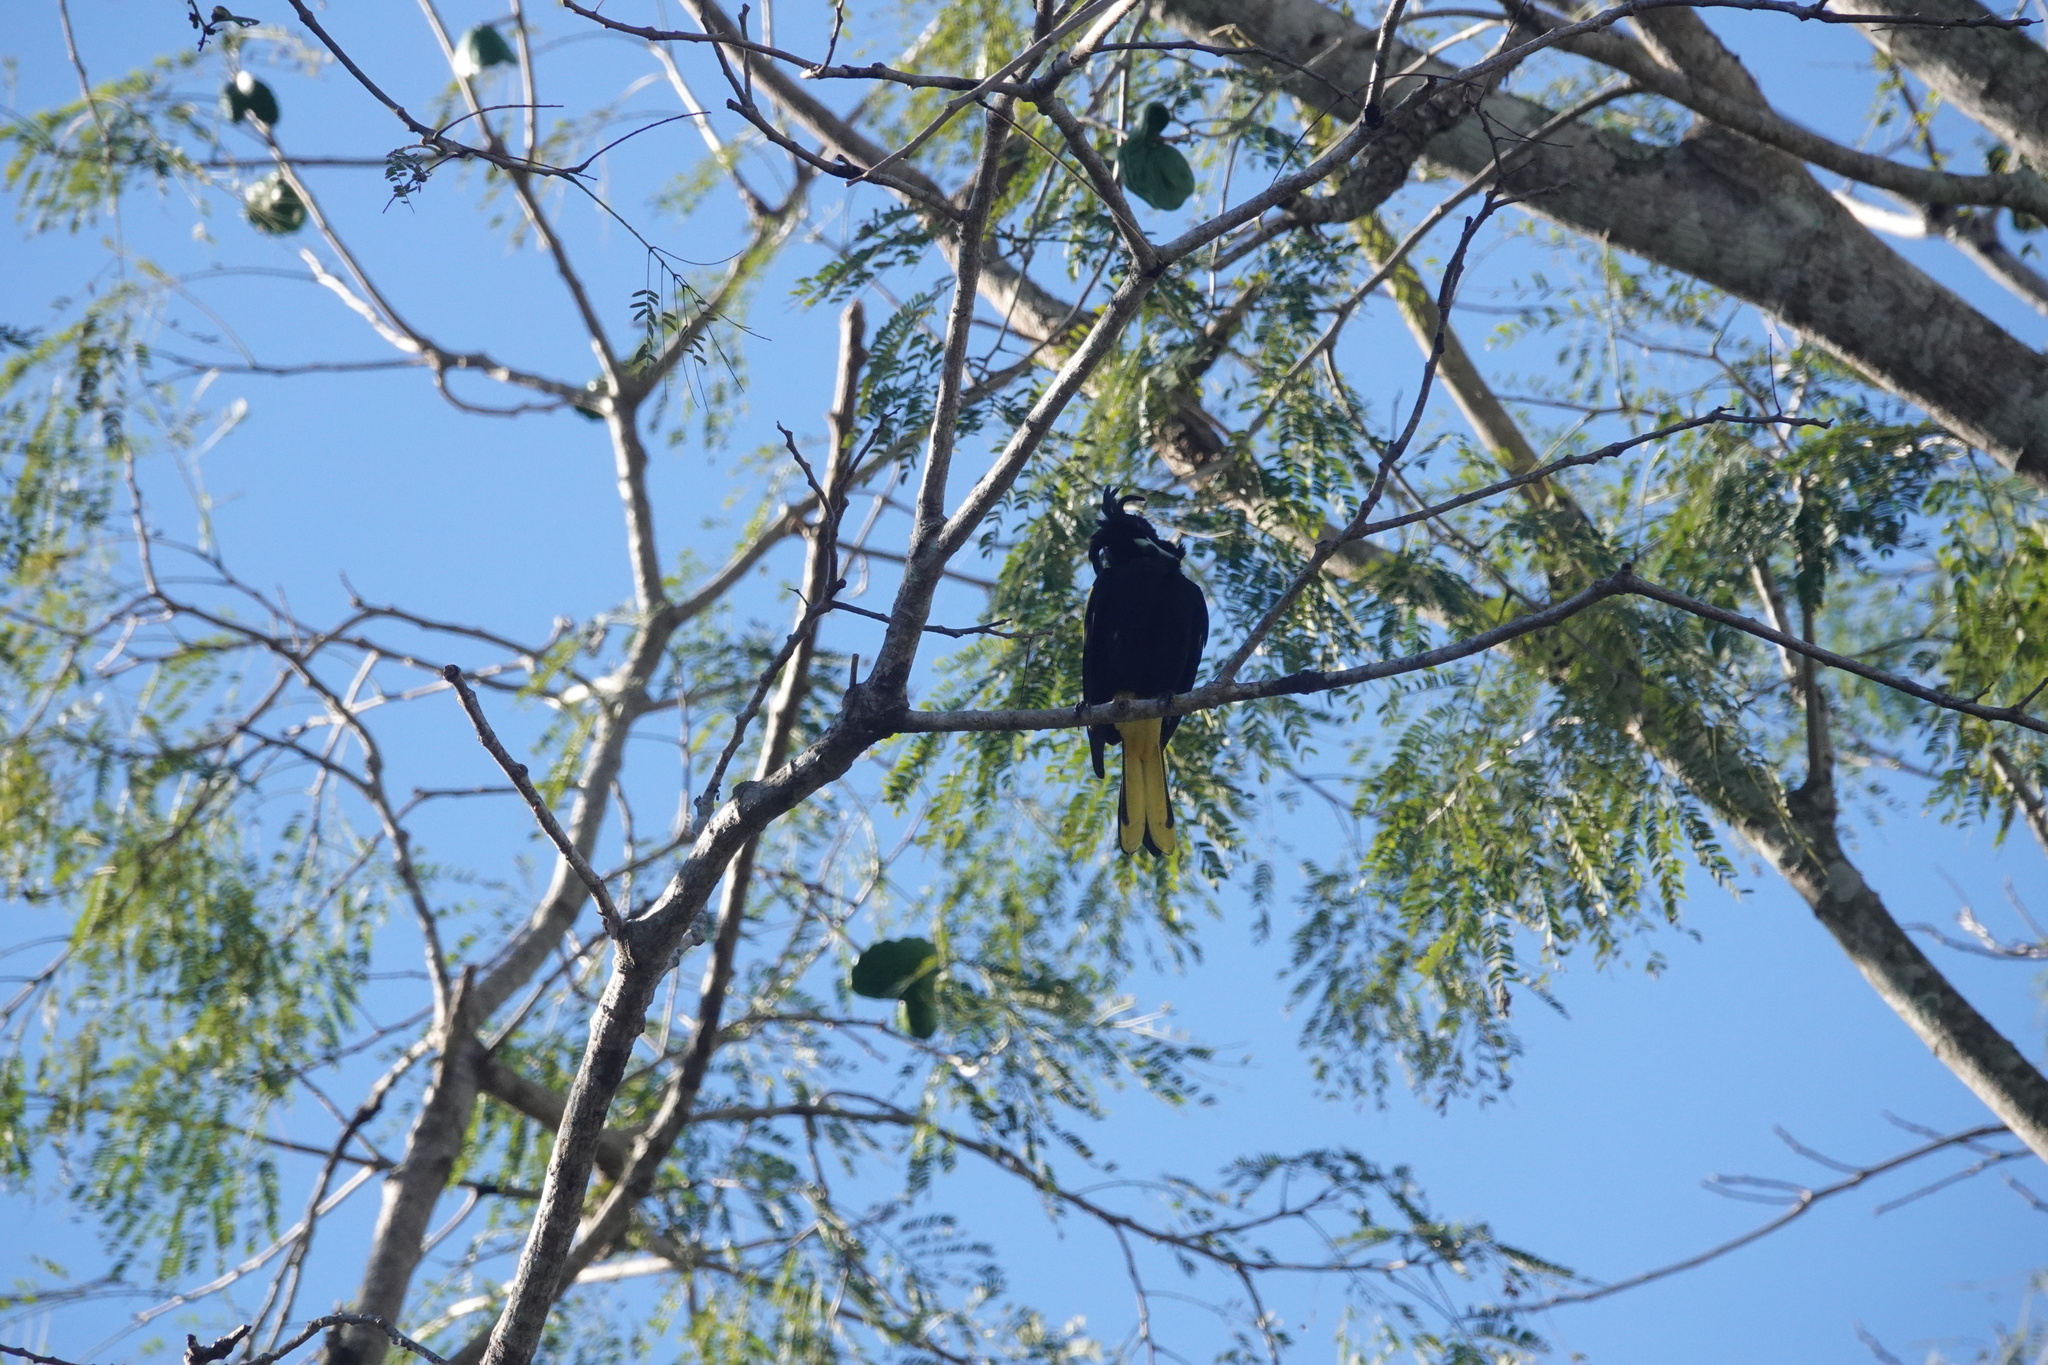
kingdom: Animalia
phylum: Chordata
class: Aves
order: Passeriformes
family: Icteridae
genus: Cacicus
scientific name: Cacicus melanicterus
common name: Yellow-winged cacique
